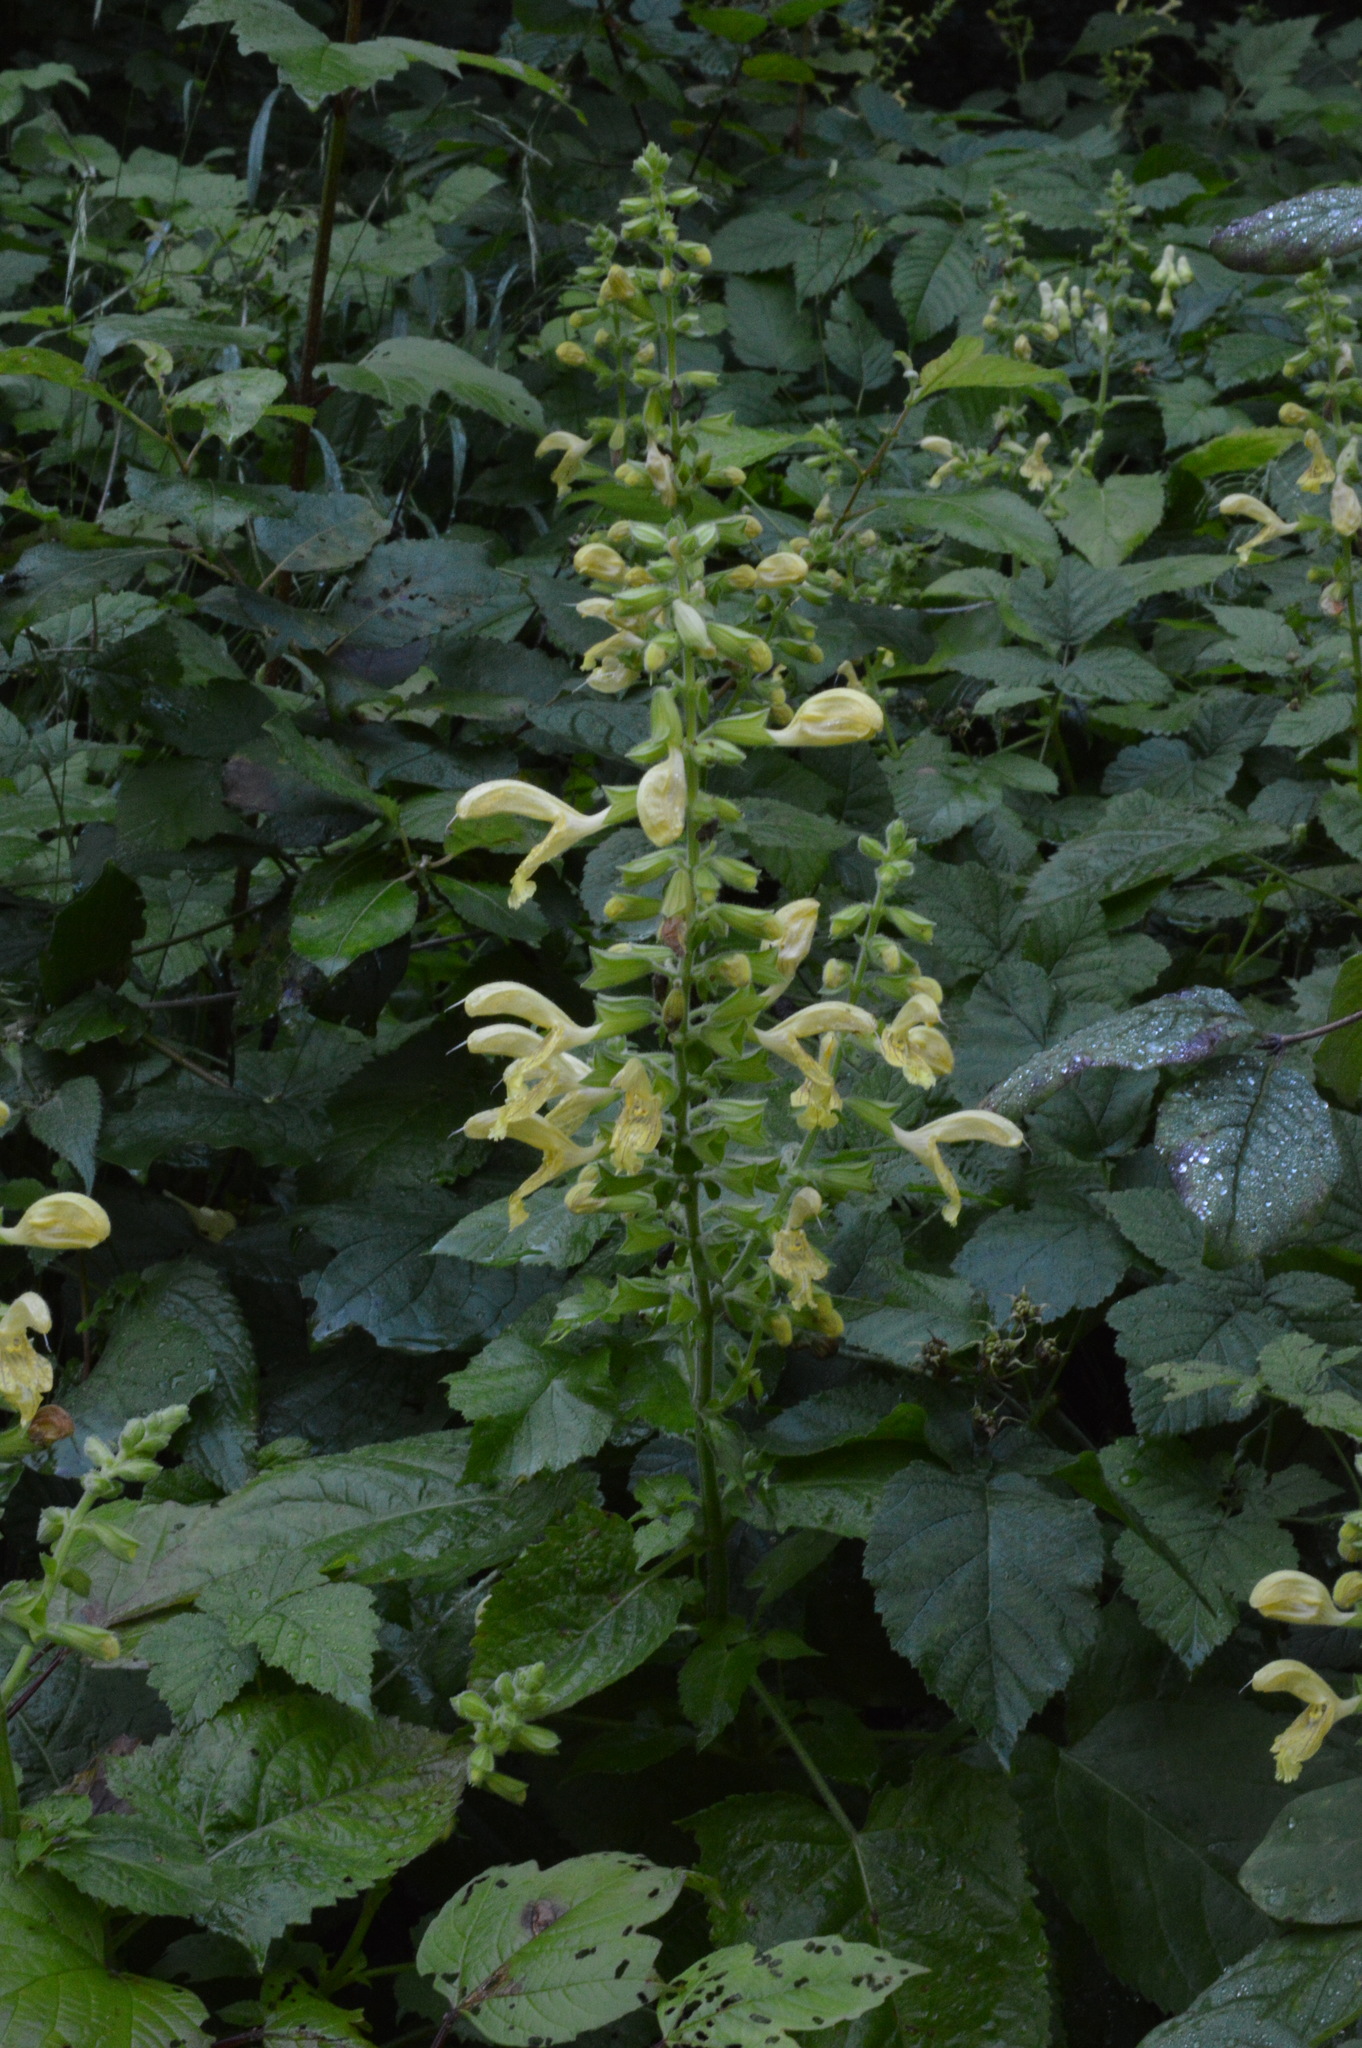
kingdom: Plantae
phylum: Tracheophyta
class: Magnoliopsida
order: Lamiales
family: Lamiaceae
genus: Salvia
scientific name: Salvia glutinosa
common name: Sticky clary
